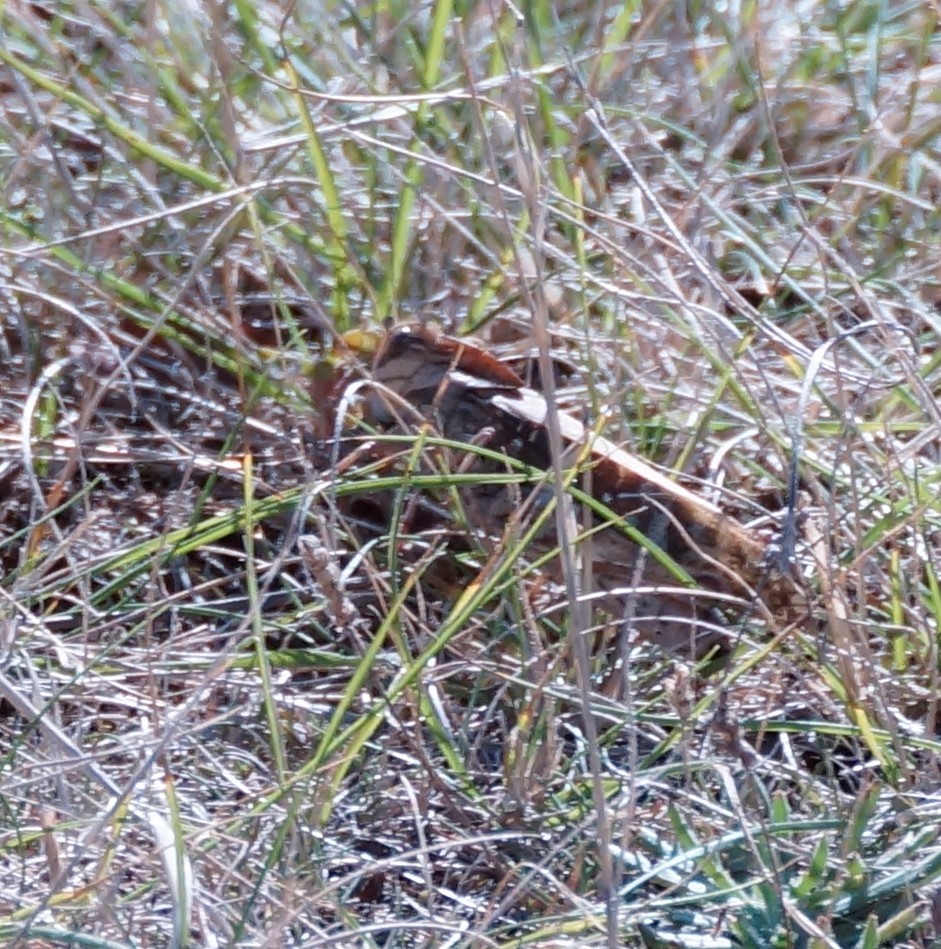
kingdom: Animalia
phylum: Arthropoda
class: Insecta
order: Orthoptera
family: Acrididae
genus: Gastrimargus
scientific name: Gastrimargus musicus
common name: Yellow-winged locust
